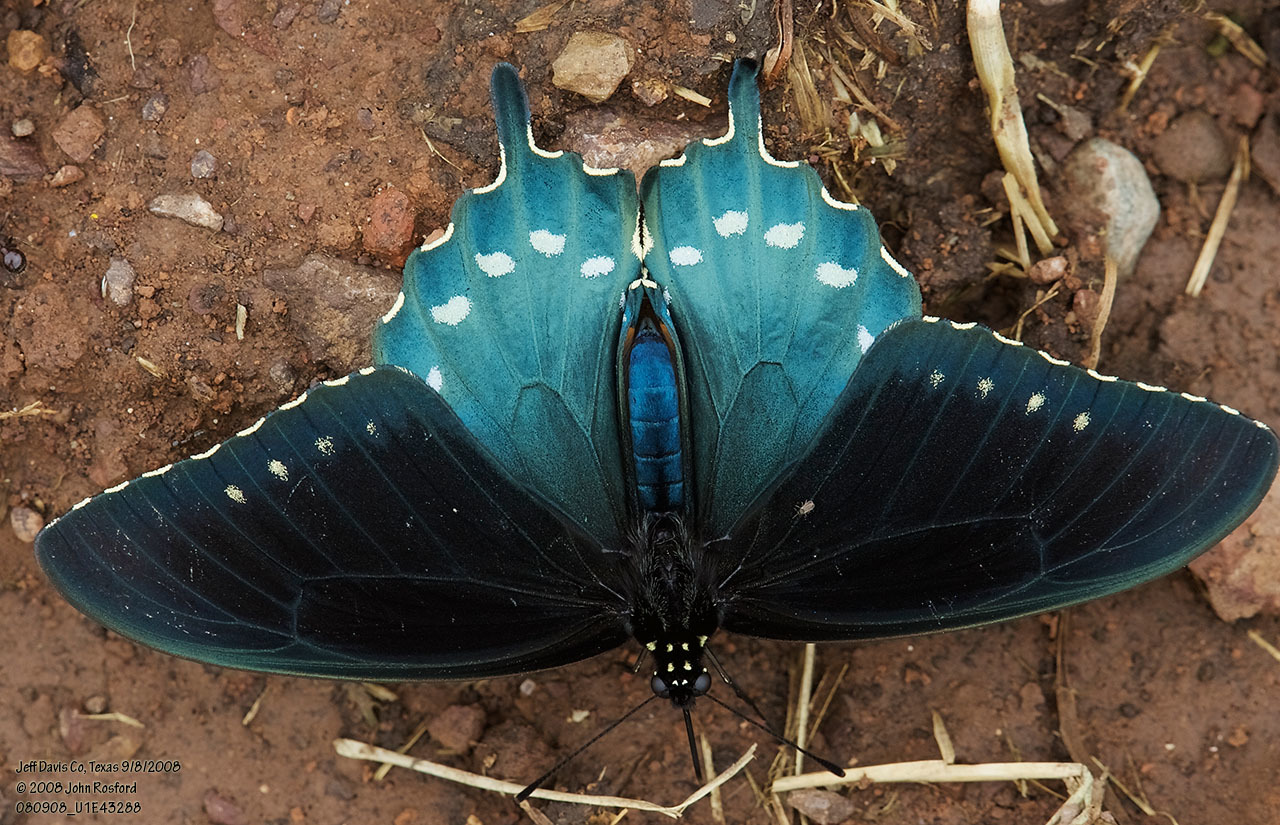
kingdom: Animalia
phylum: Arthropoda
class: Insecta
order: Lepidoptera
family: Papilionidae
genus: Battus
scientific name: Battus philenor
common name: Pipevine swallowtail
